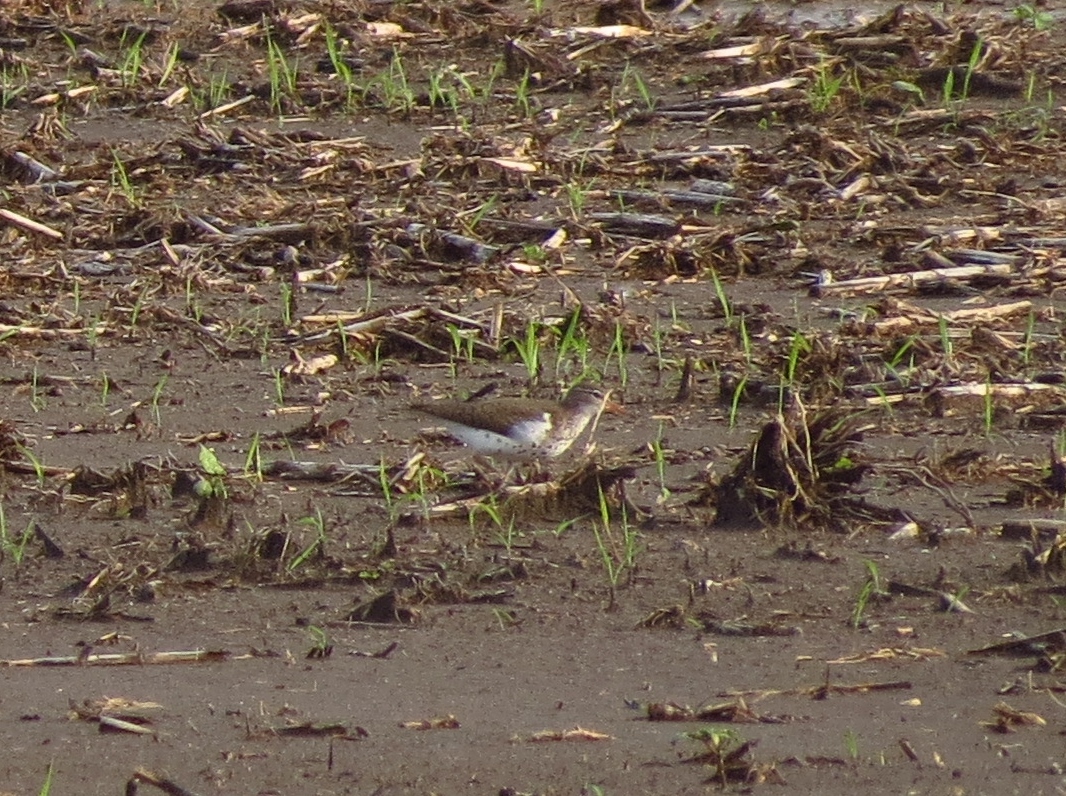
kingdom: Animalia
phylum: Chordata
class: Aves
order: Charadriiformes
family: Scolopacidae
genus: Actitis
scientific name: Actitis macularius
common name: Spotted sandpiper
